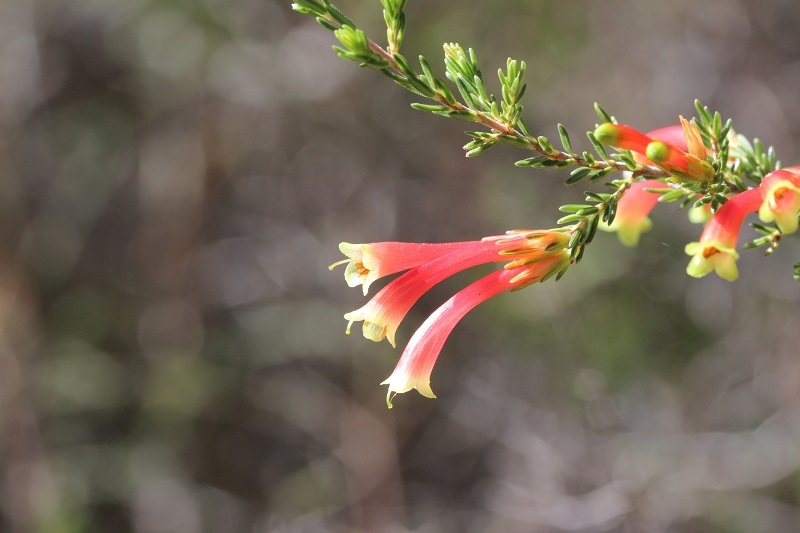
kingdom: Plantae
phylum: Tracheophyta
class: Magnoliopsida
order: Ericales
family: Ericaceae
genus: Erica
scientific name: Erica discolor
